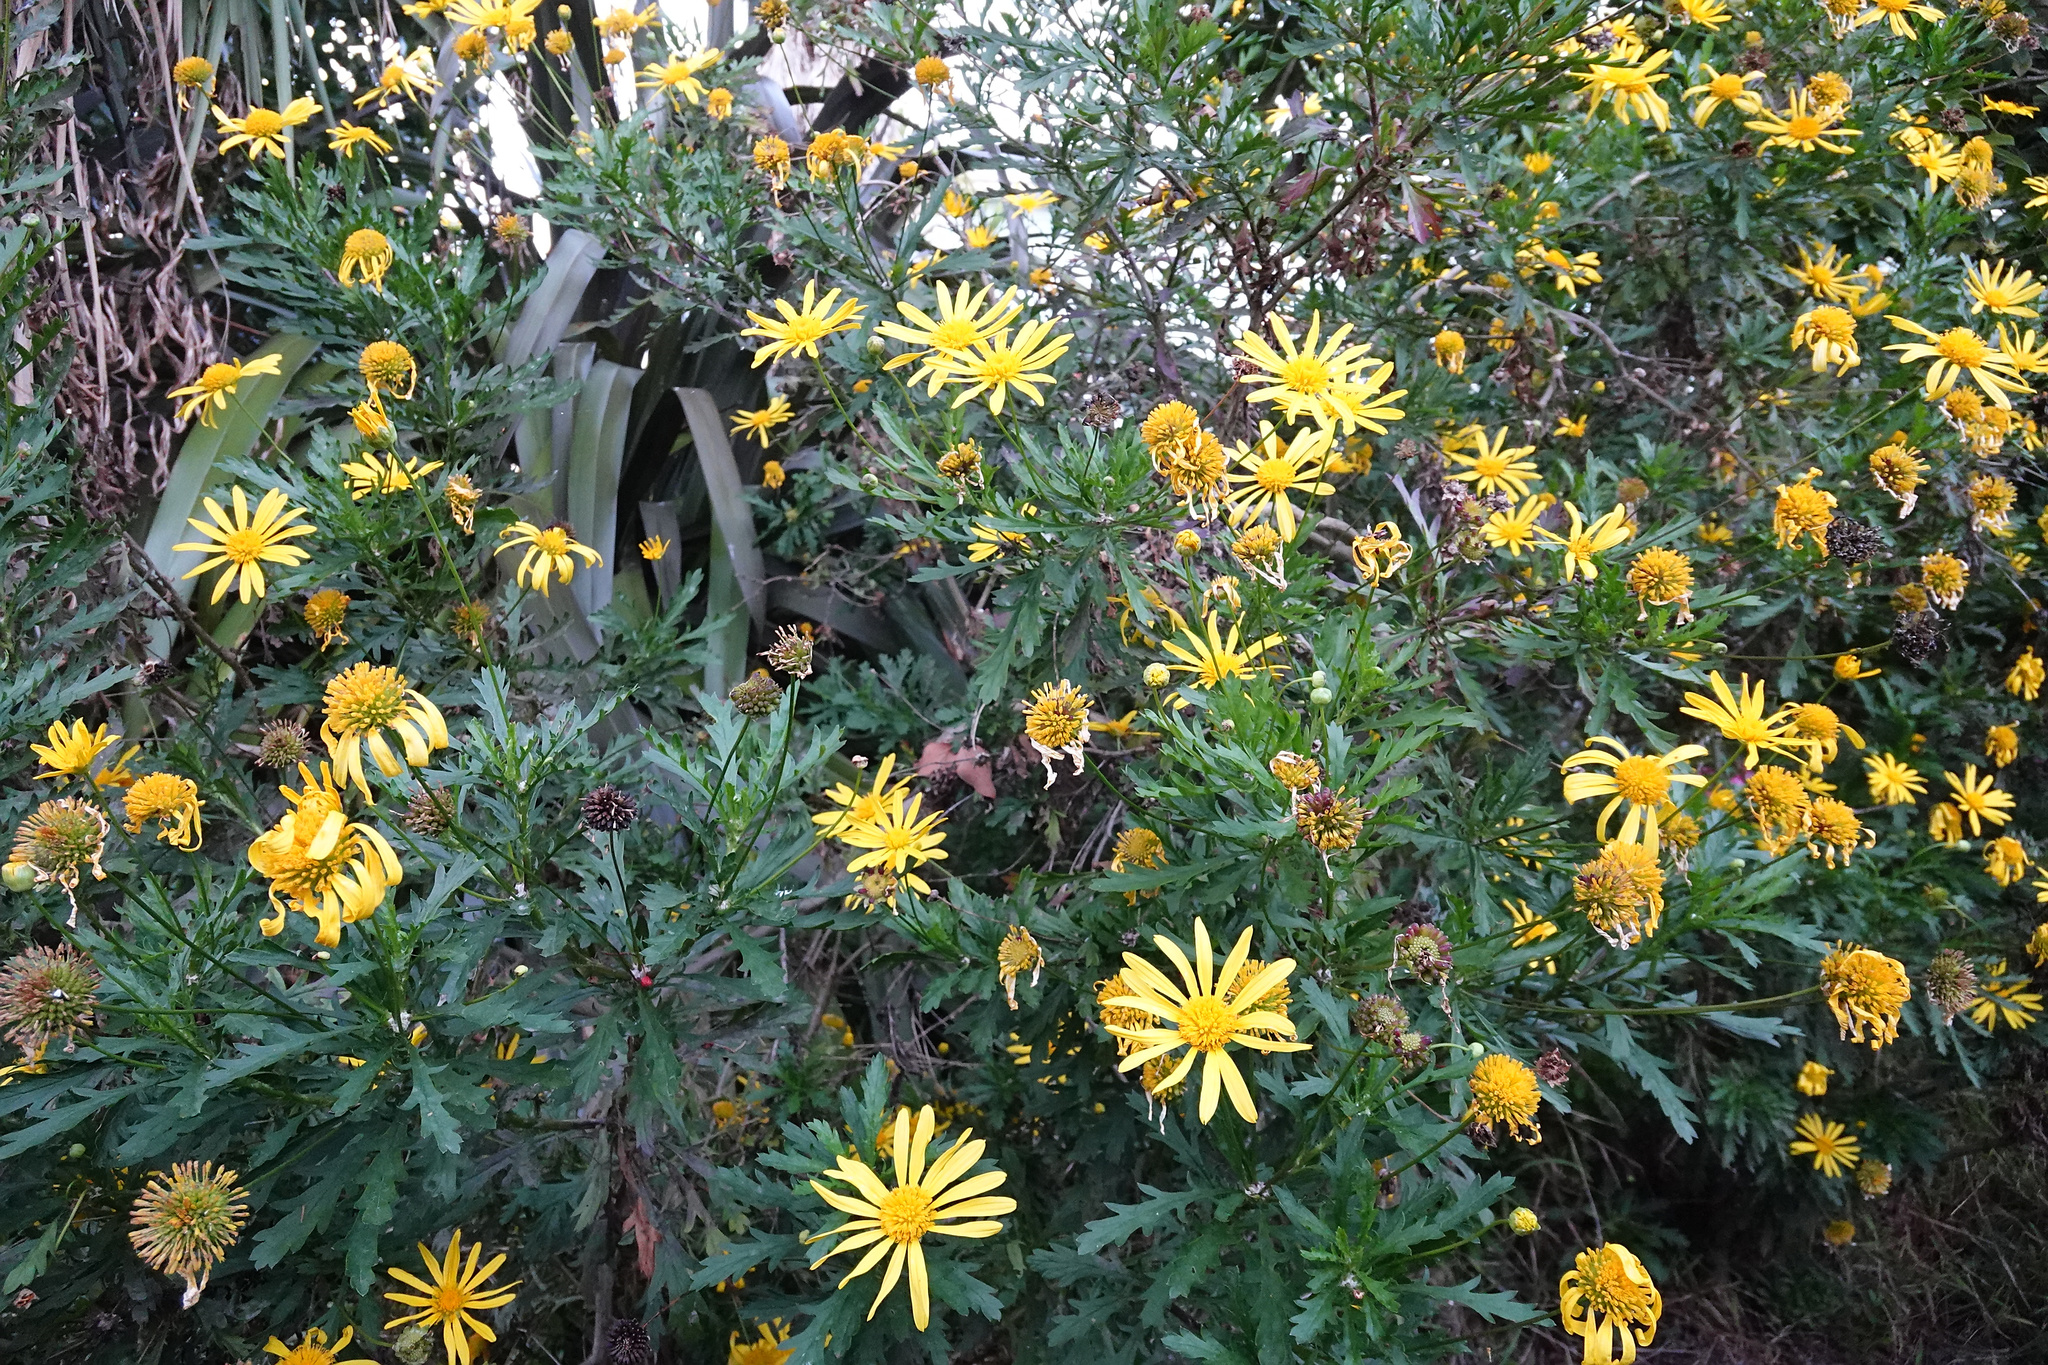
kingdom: Plantae
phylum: Tracheophyta
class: Magnoliopsida
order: Asterales
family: Asteraceae
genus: Euryops
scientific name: Euryops chrysanthemoides
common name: Bull's eye
